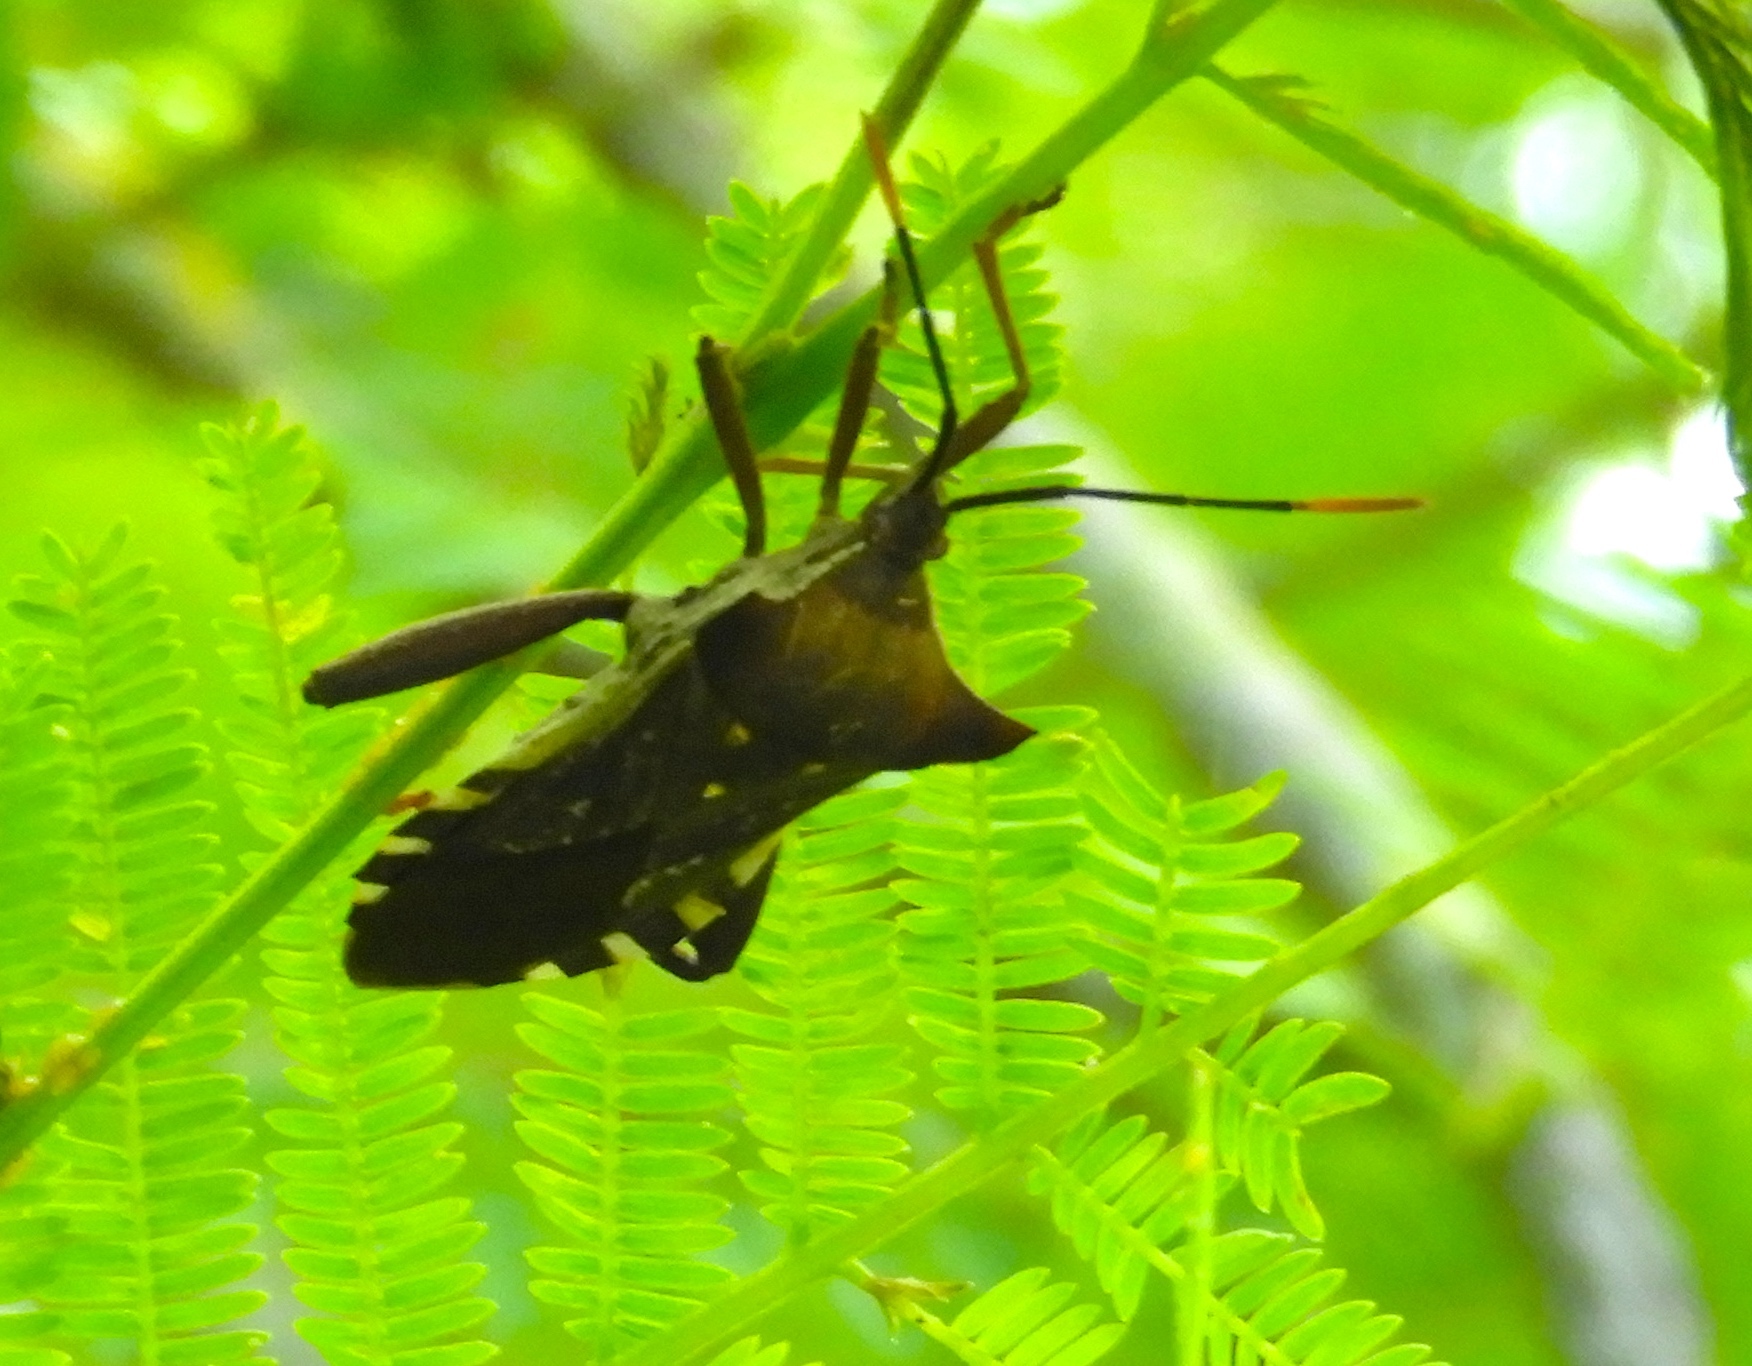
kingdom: Animalia
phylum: Arthropoda
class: Insecta
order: Hemiptera
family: Coreidae
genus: Mozena
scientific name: Mozena lunata
